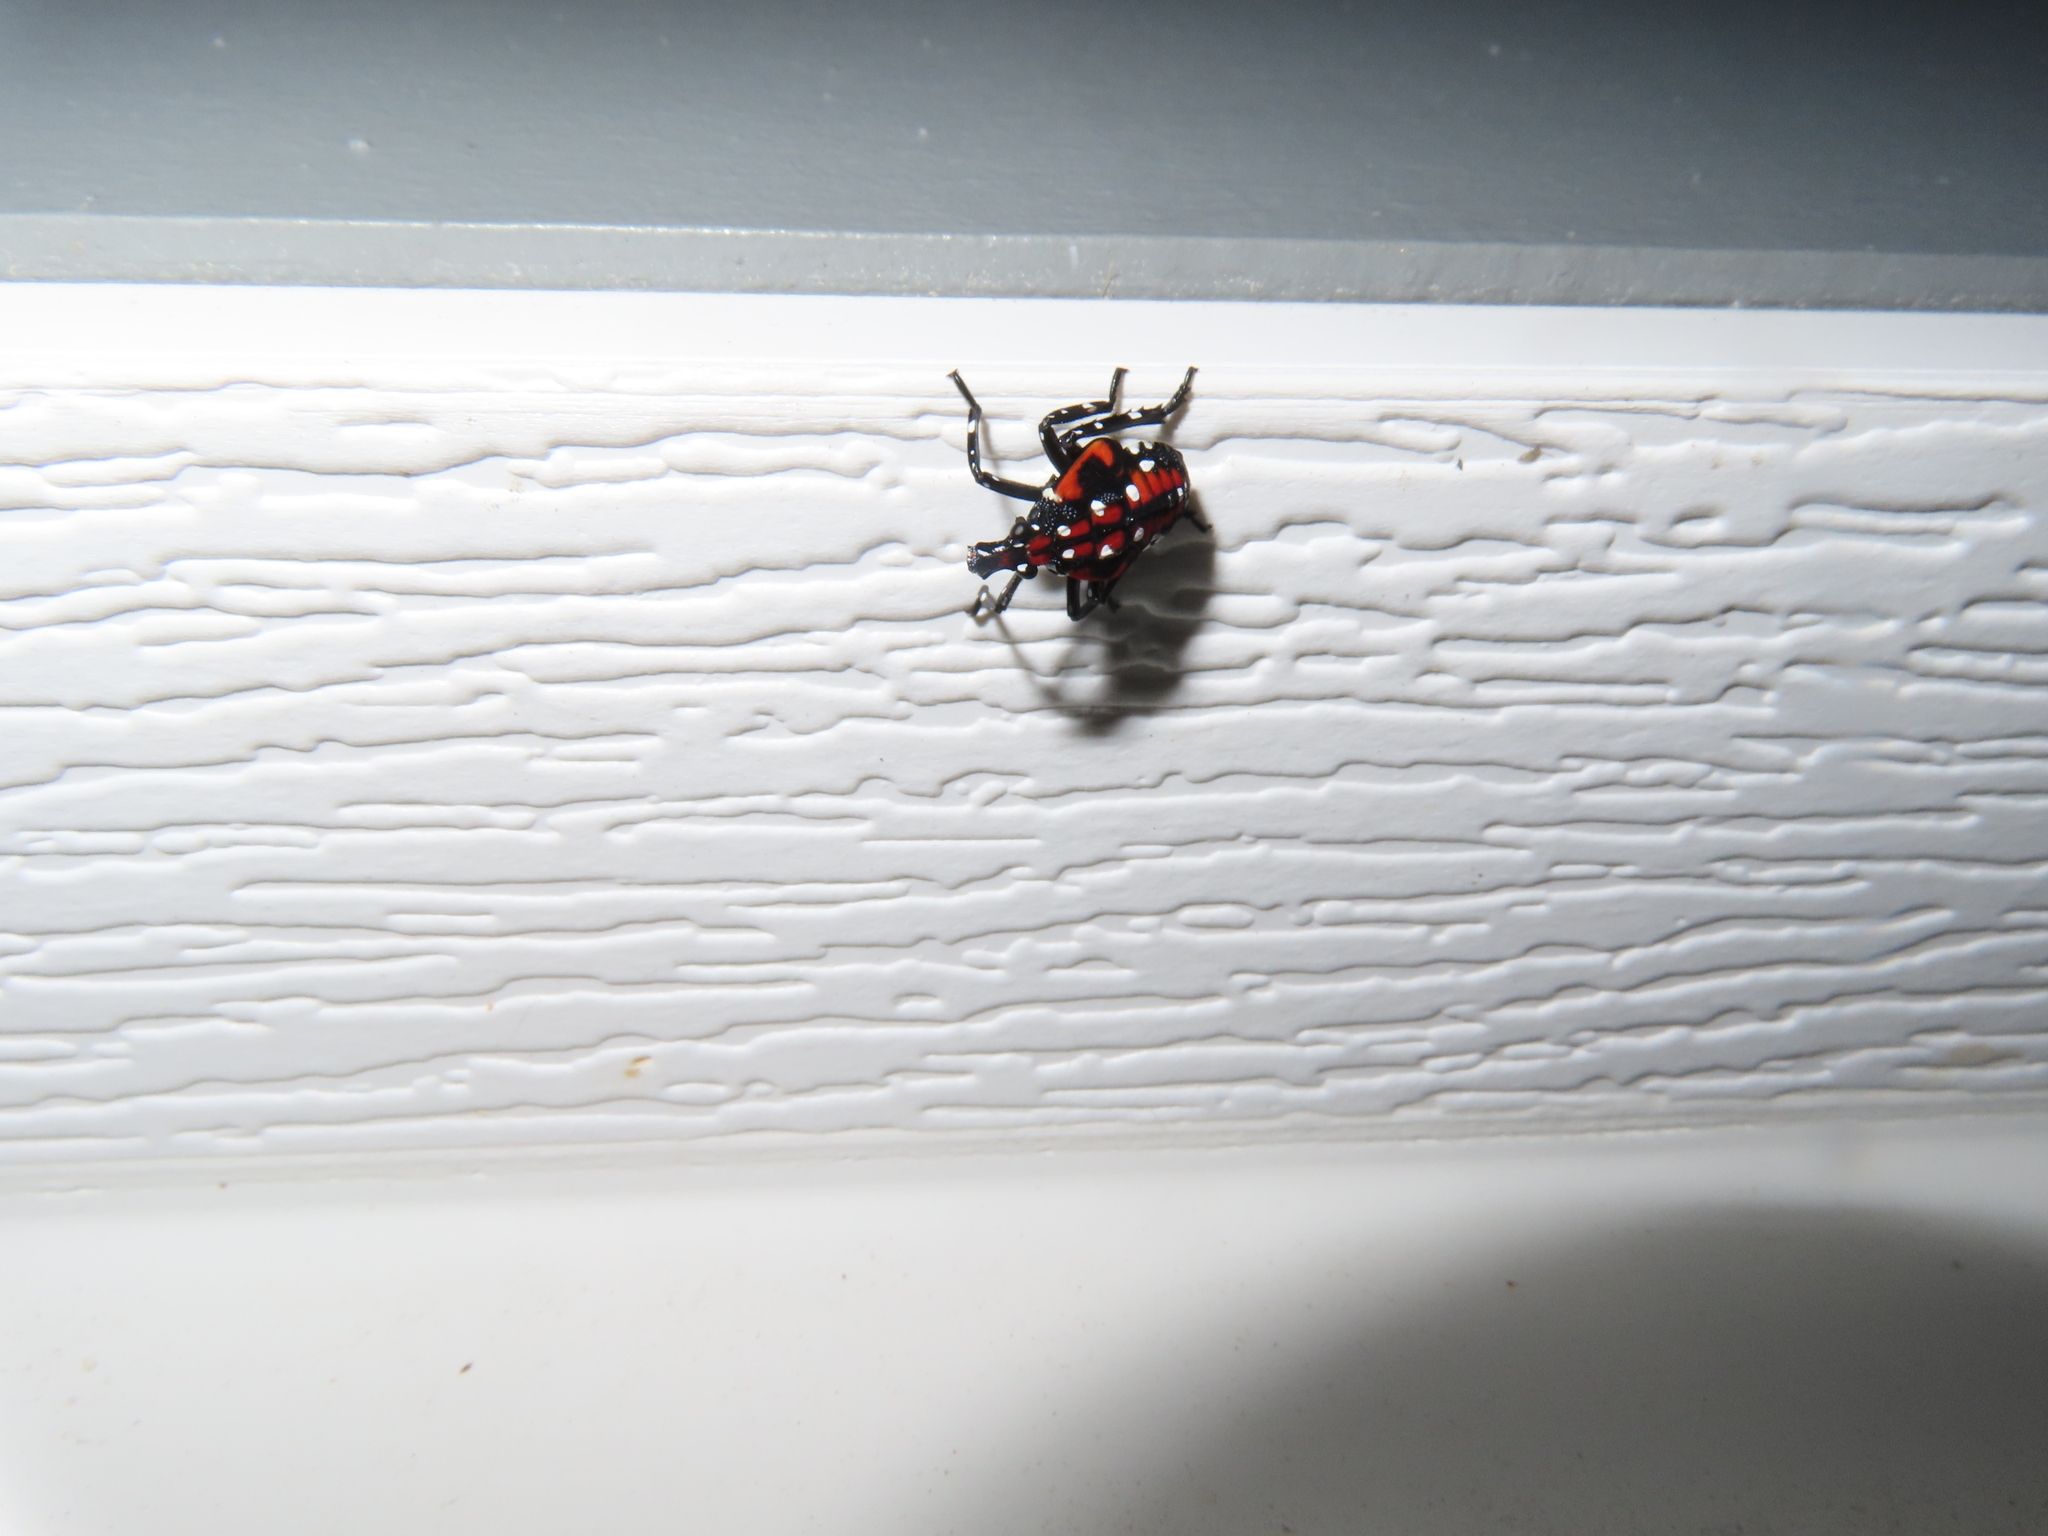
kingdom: Animalia
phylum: Arthropoda
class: Insecta
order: Hemiptera
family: Fulgoridae
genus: Lycorma
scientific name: Lycorma delicatula
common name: Spotted lanternfly
